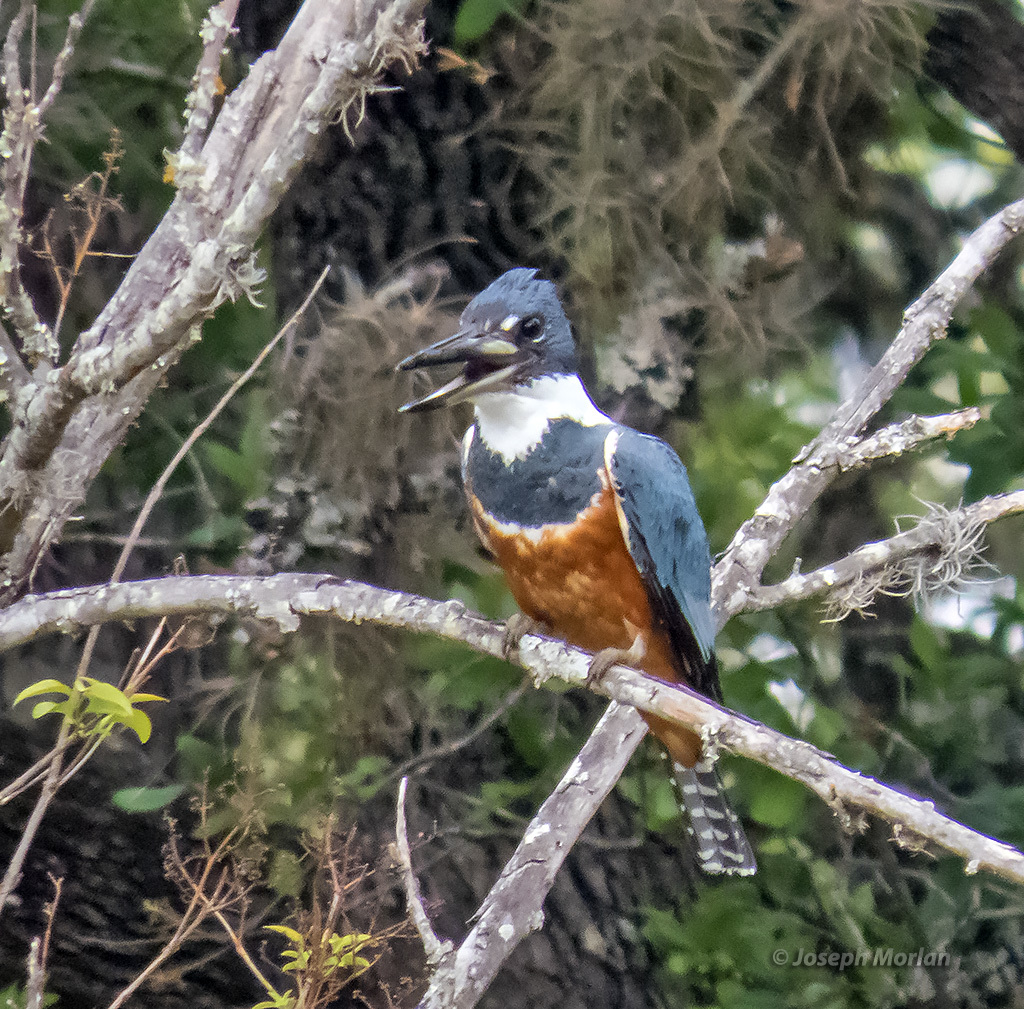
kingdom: Animalia
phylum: Chordata
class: Aves
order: Coraciiformes
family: Alcedinidae
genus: Megaceryle
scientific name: Megaceryle torquata
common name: Ringed kingfisher
